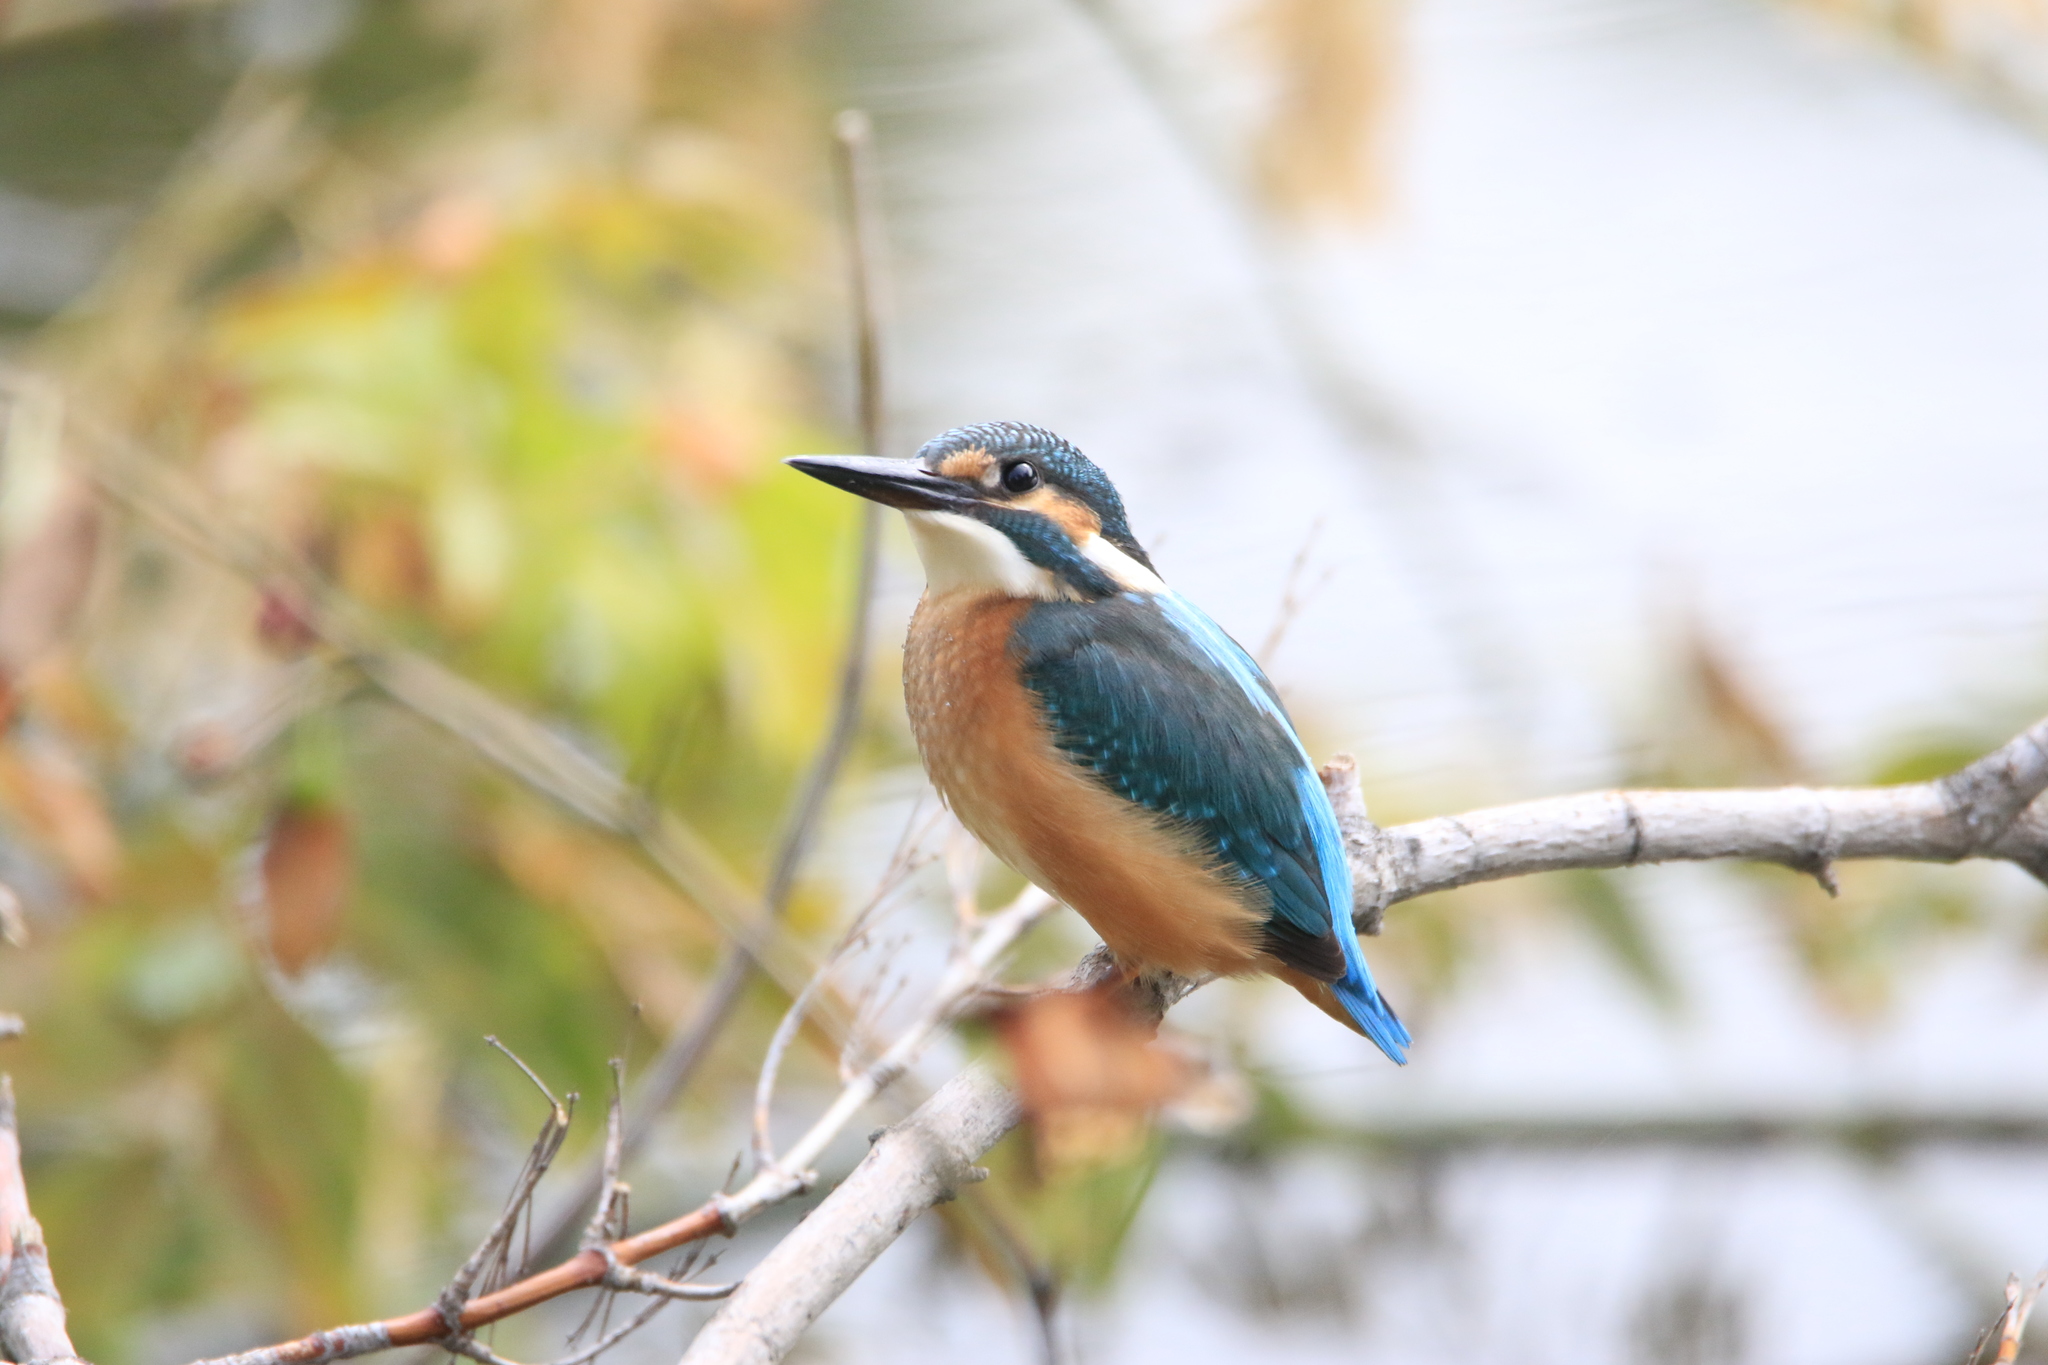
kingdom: Animalia
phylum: Chordata
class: Aves
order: Coraciiformes
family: Alcedinidae
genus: Alcedo
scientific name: Alcedo atthis
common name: Common kingfisher
